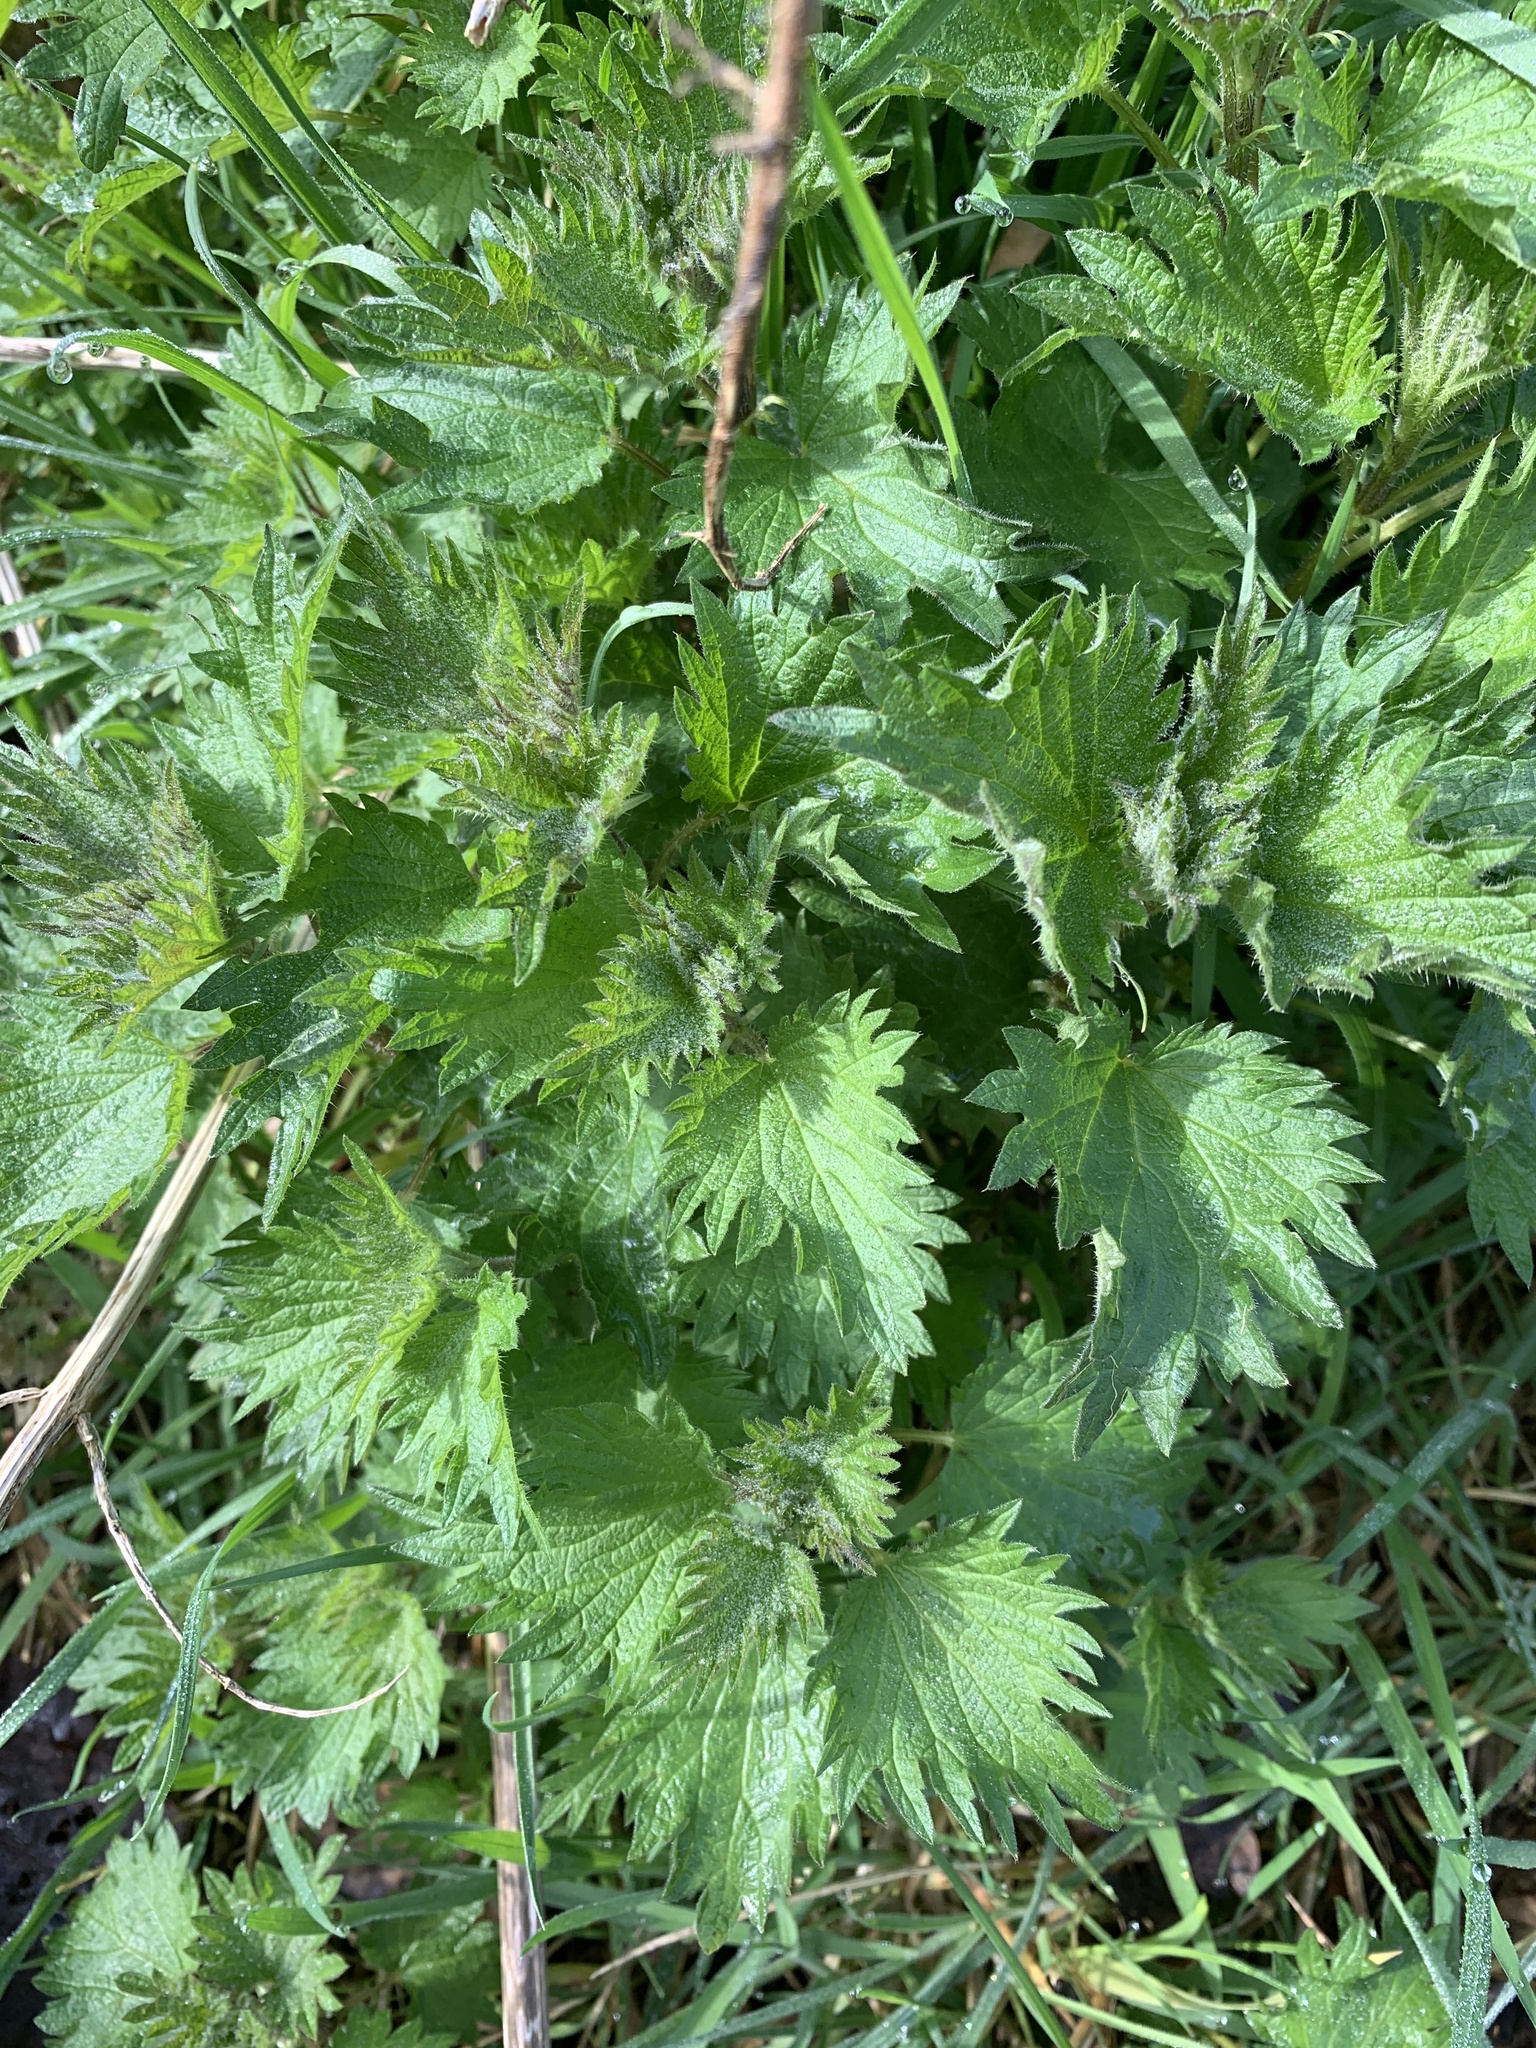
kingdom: Plantae
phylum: Tracheophyta
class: Magnoliopsida
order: Rosales
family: Urticaceae
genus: Urtica
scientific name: Urtica dioica
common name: Common nettle
